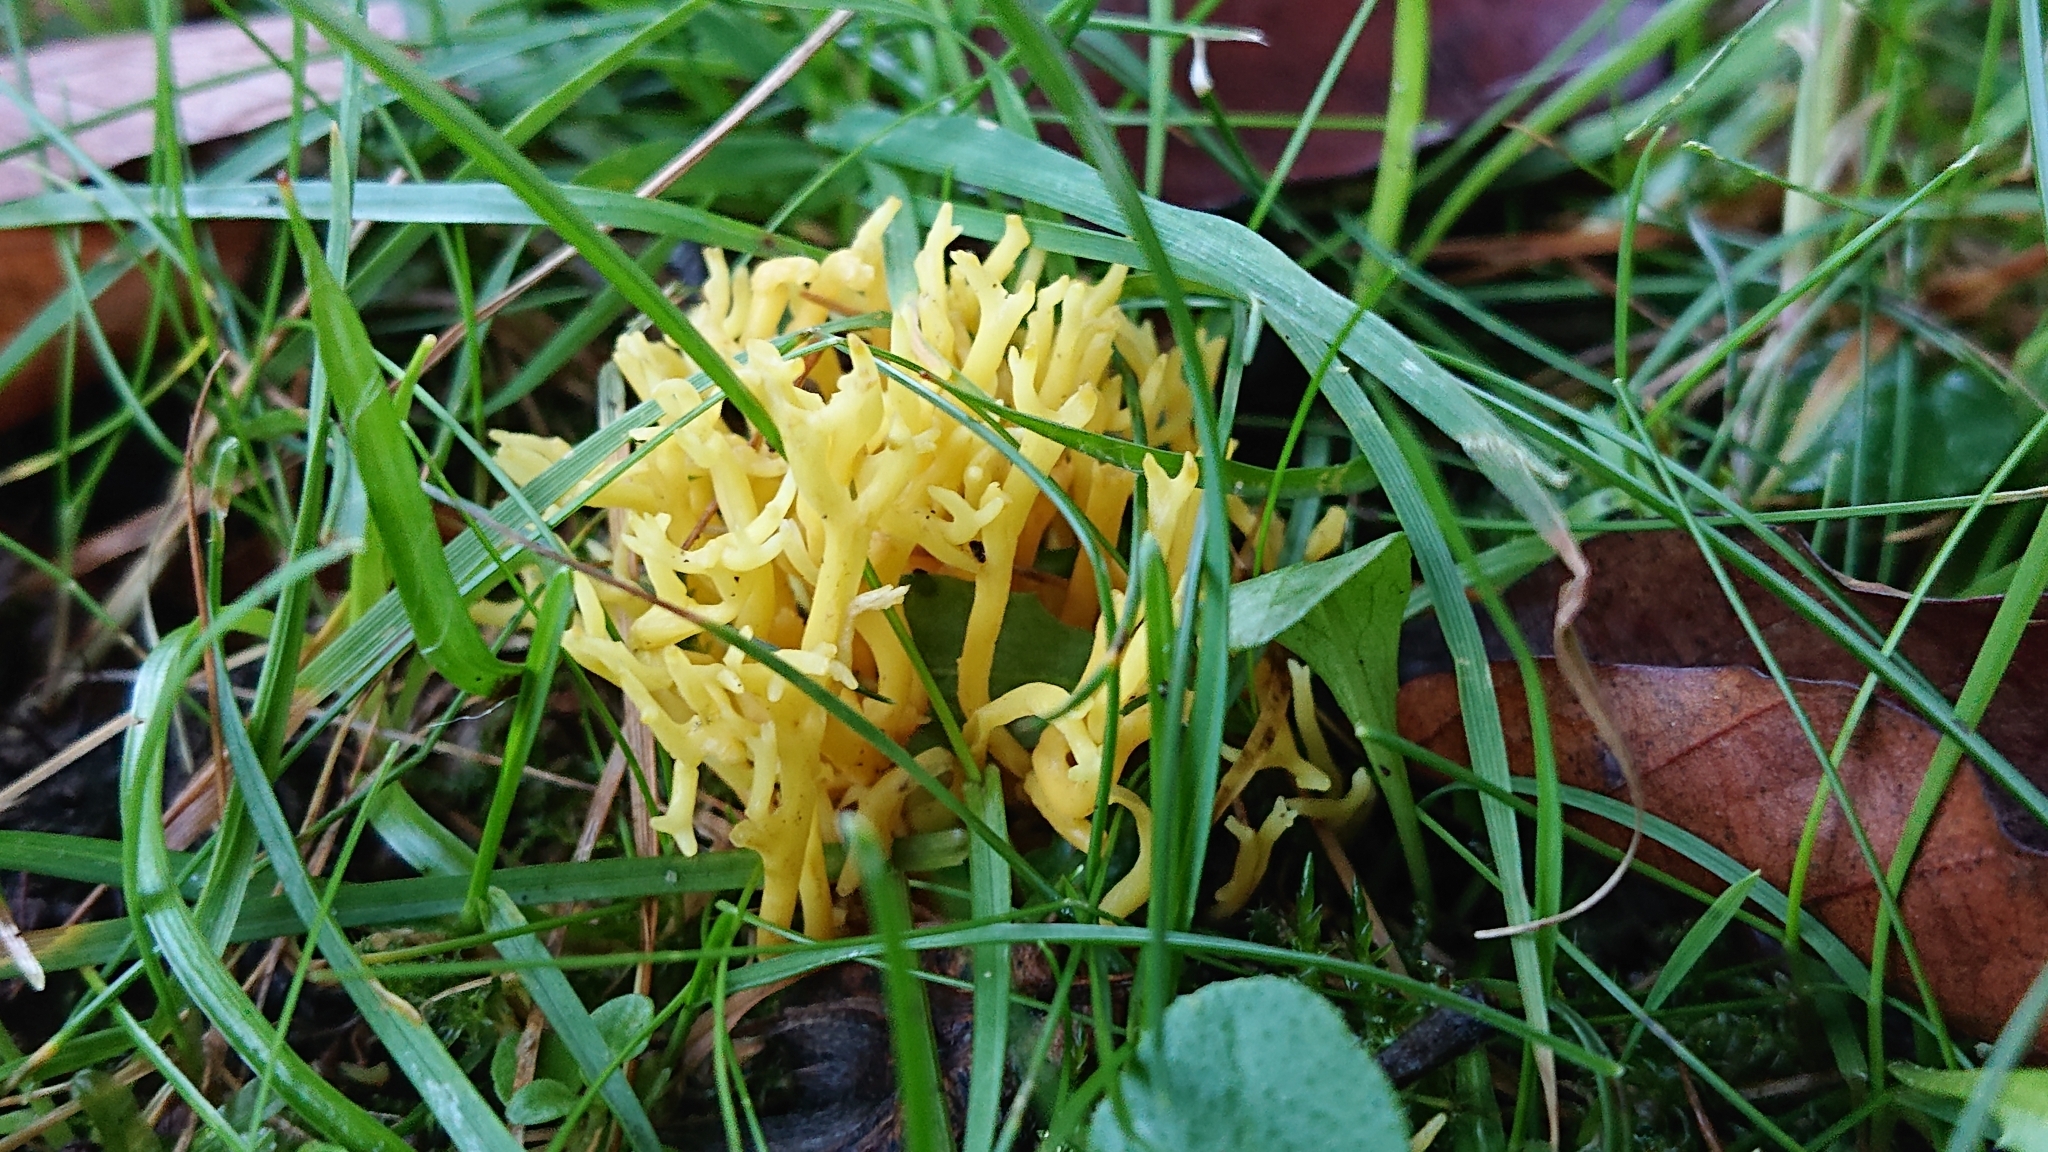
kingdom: Fungi
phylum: Basidiomycota
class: Agaricomycetes
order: Agaricales
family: Clavariaceae
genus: Clavulinopsis
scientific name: Clavulinopsis corniculata
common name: Meadow coral
